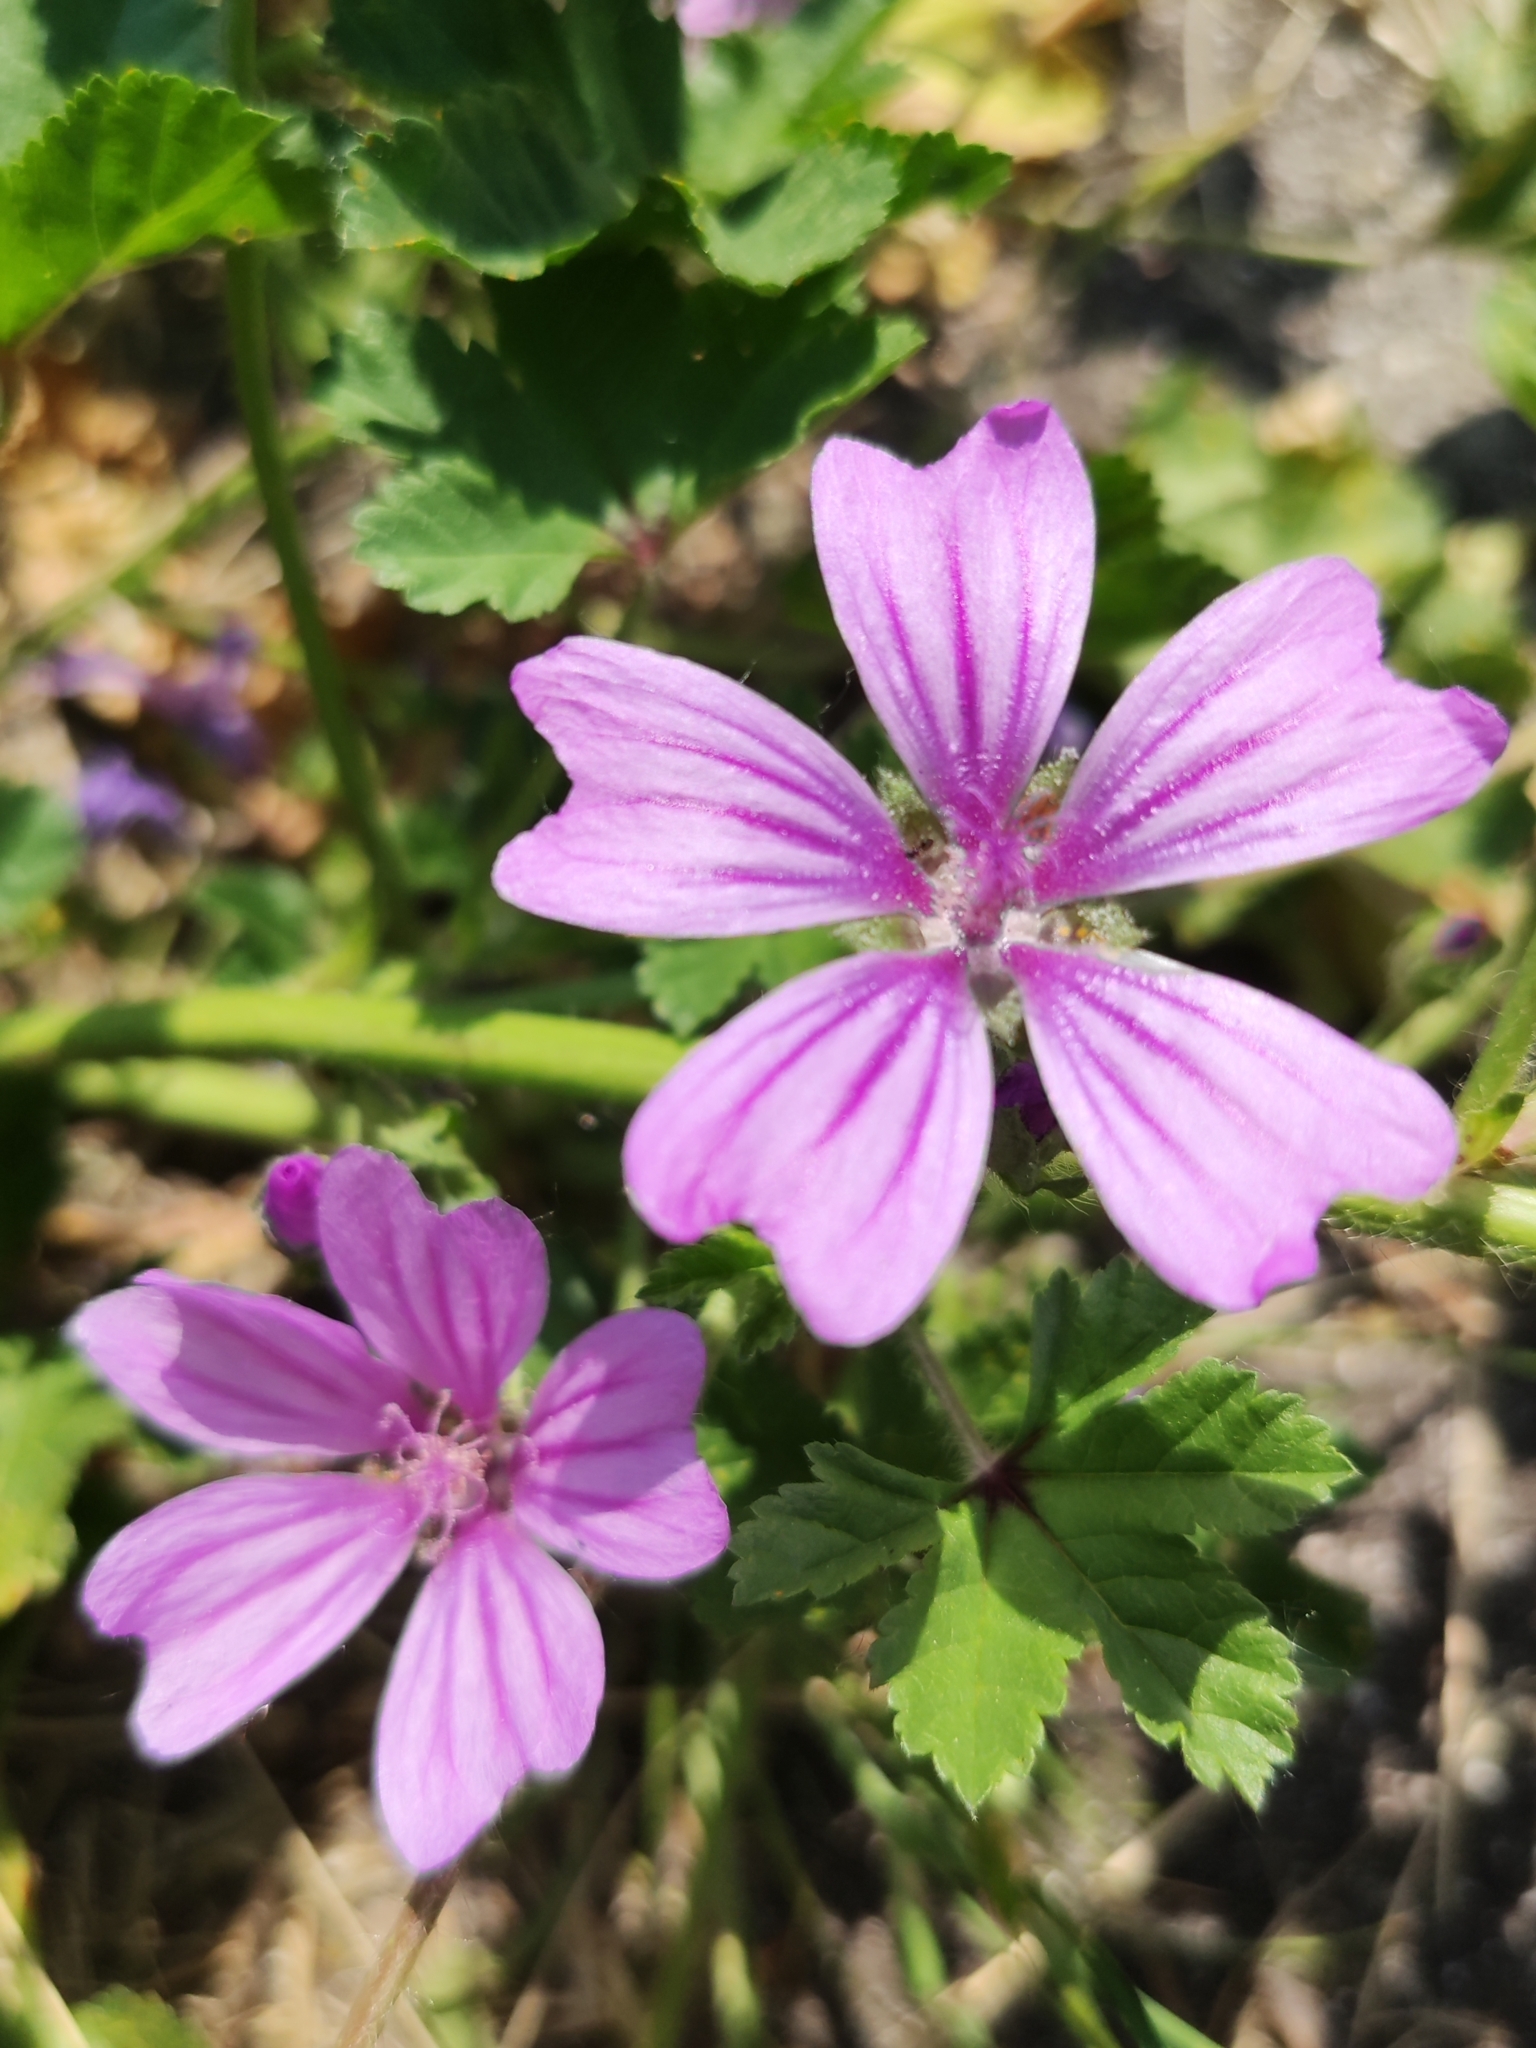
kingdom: Plantae
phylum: Tracheophyta
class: Magnoliopsida
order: Malvales
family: Malvaceae
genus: Malva
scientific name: Malva sylvestris
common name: Common mallow
